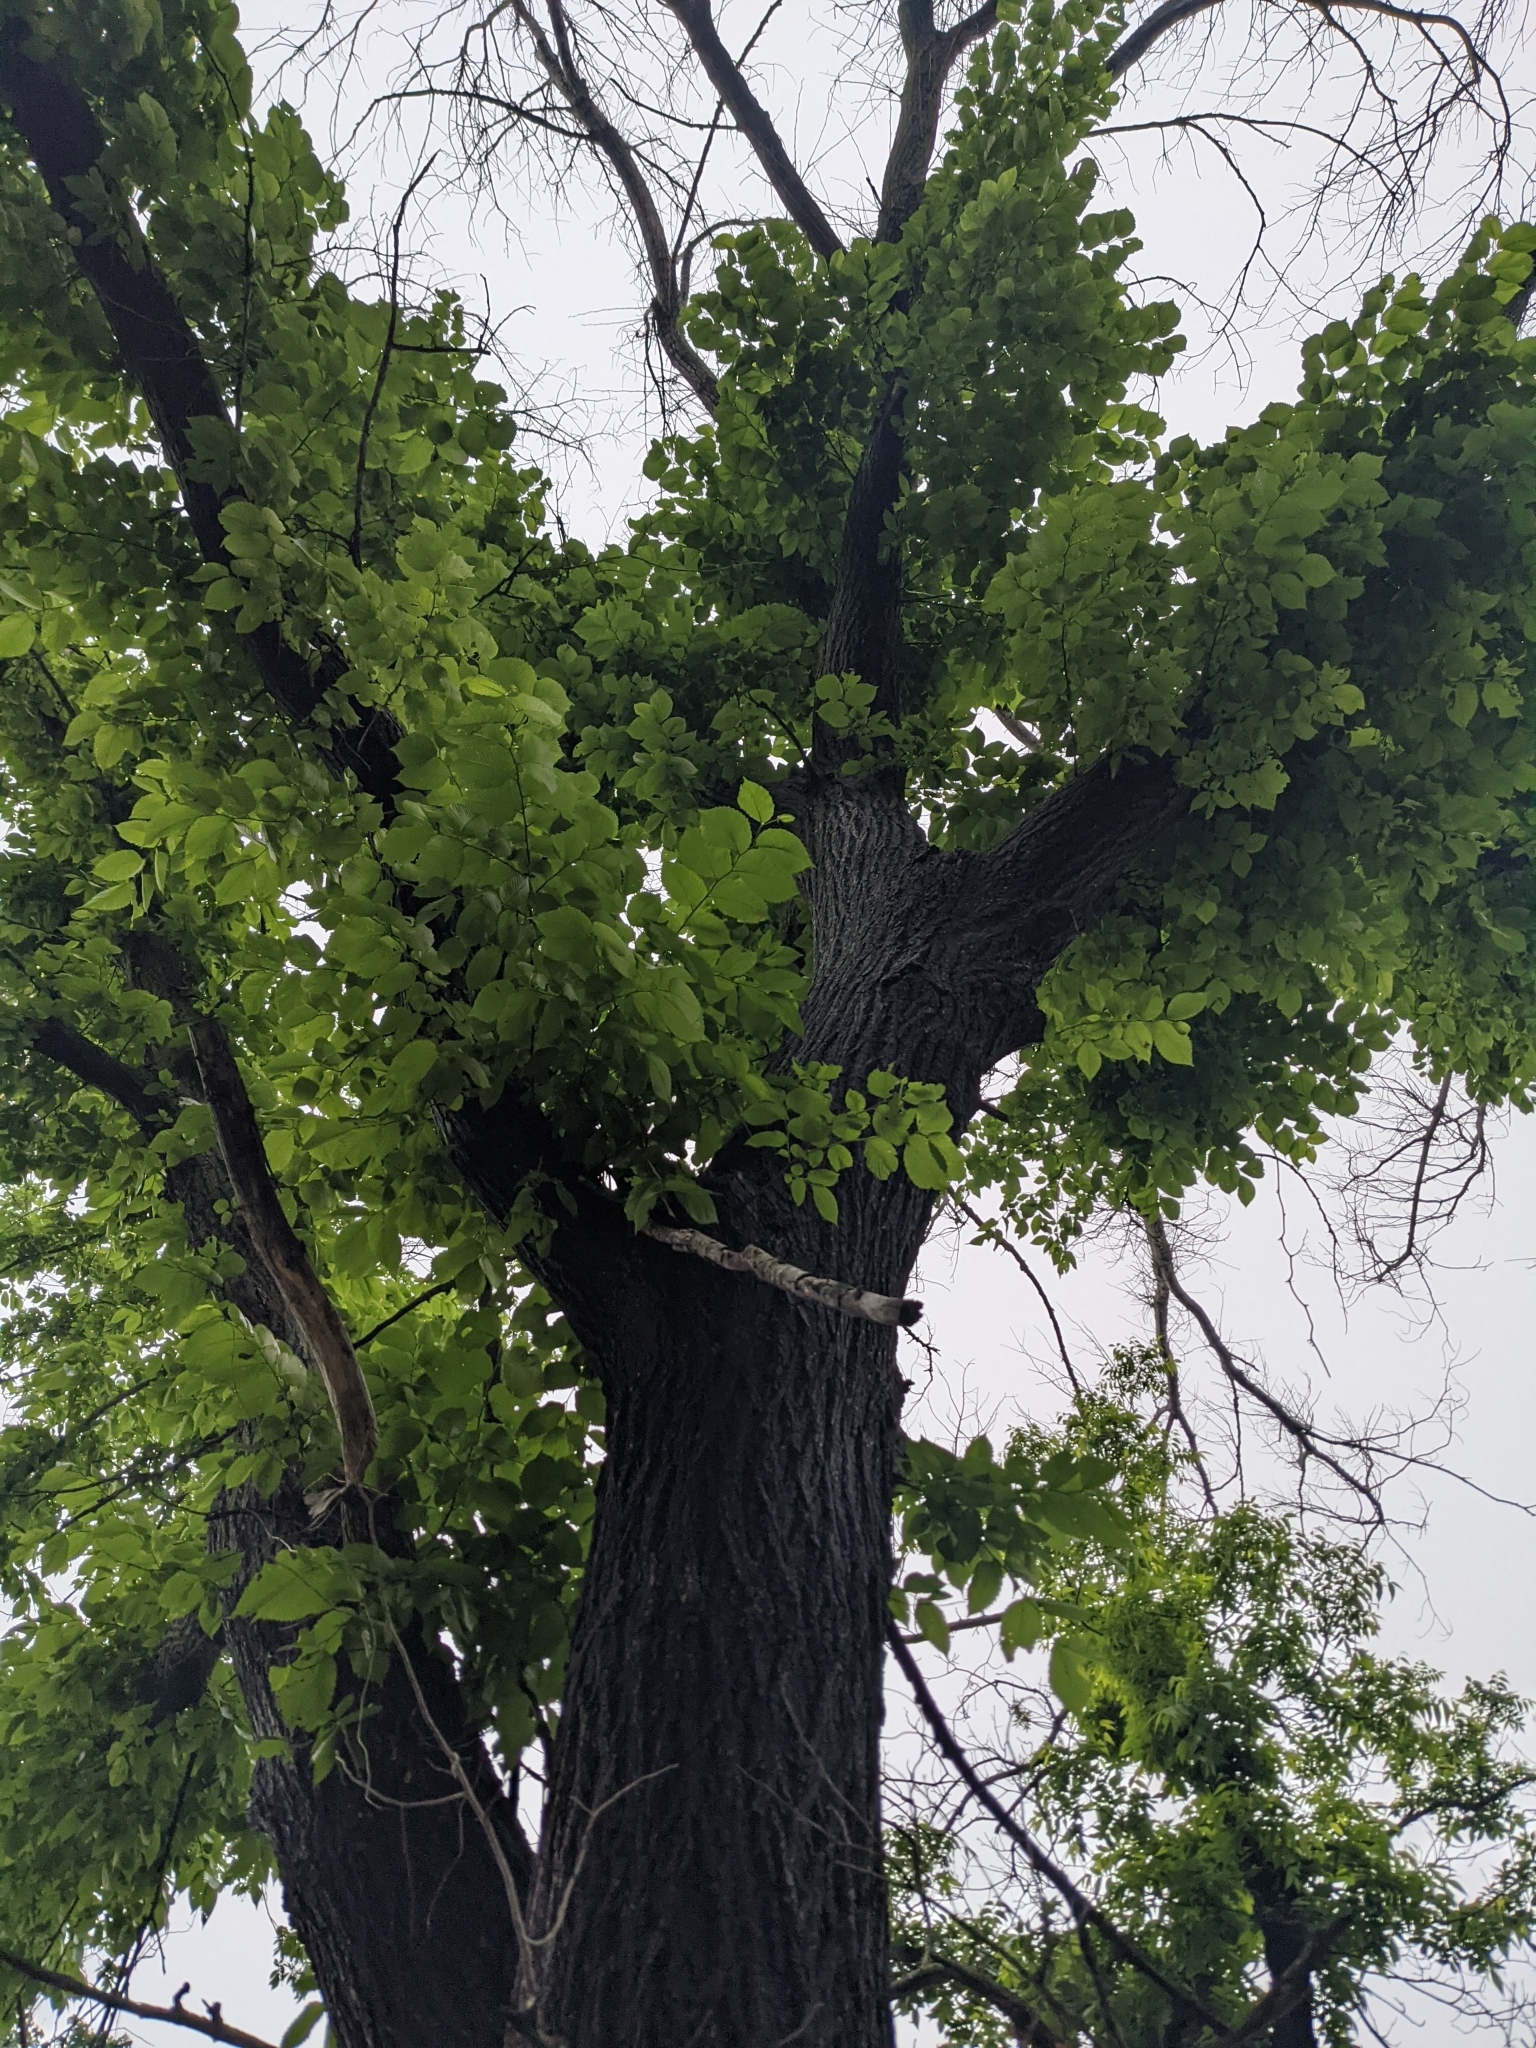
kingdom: Plantae
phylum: Tracheophyta
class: Magnoliopsida
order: Rosales
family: Ulmaceae
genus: Ulmus
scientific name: Ulmus americana
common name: American elm
